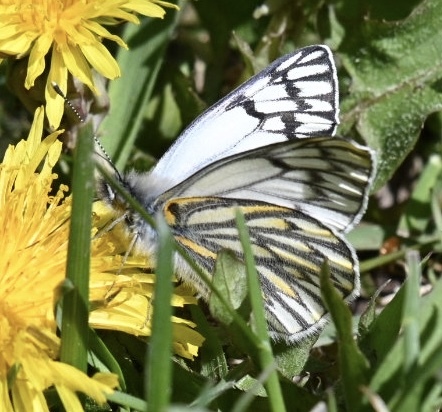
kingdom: Animalia
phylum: Arthropoda
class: Insecta
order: Lepidoptera
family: Pieridae
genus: Tatochila
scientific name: Tatochila theodice
